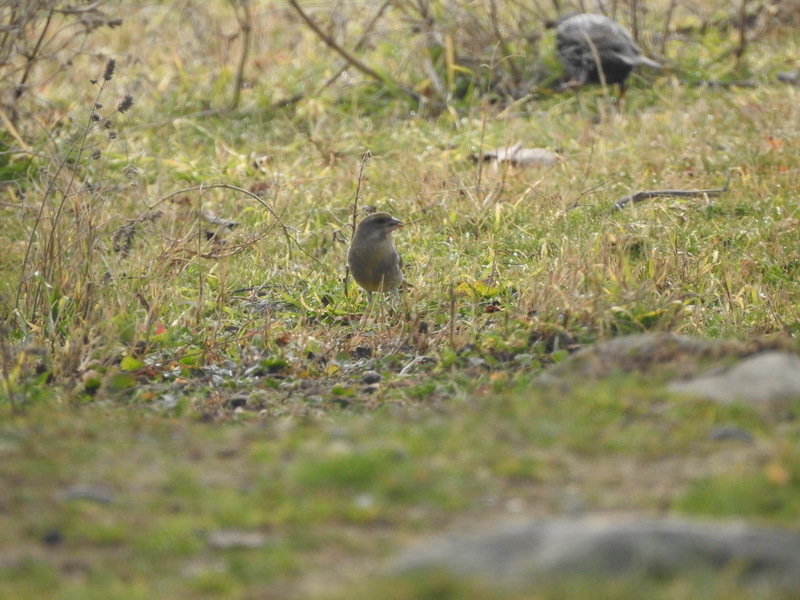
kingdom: Plantae
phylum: Tracheophyta
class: Liliopsida
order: Poales
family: Poaceae
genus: Chloris
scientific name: Chloris chloris
